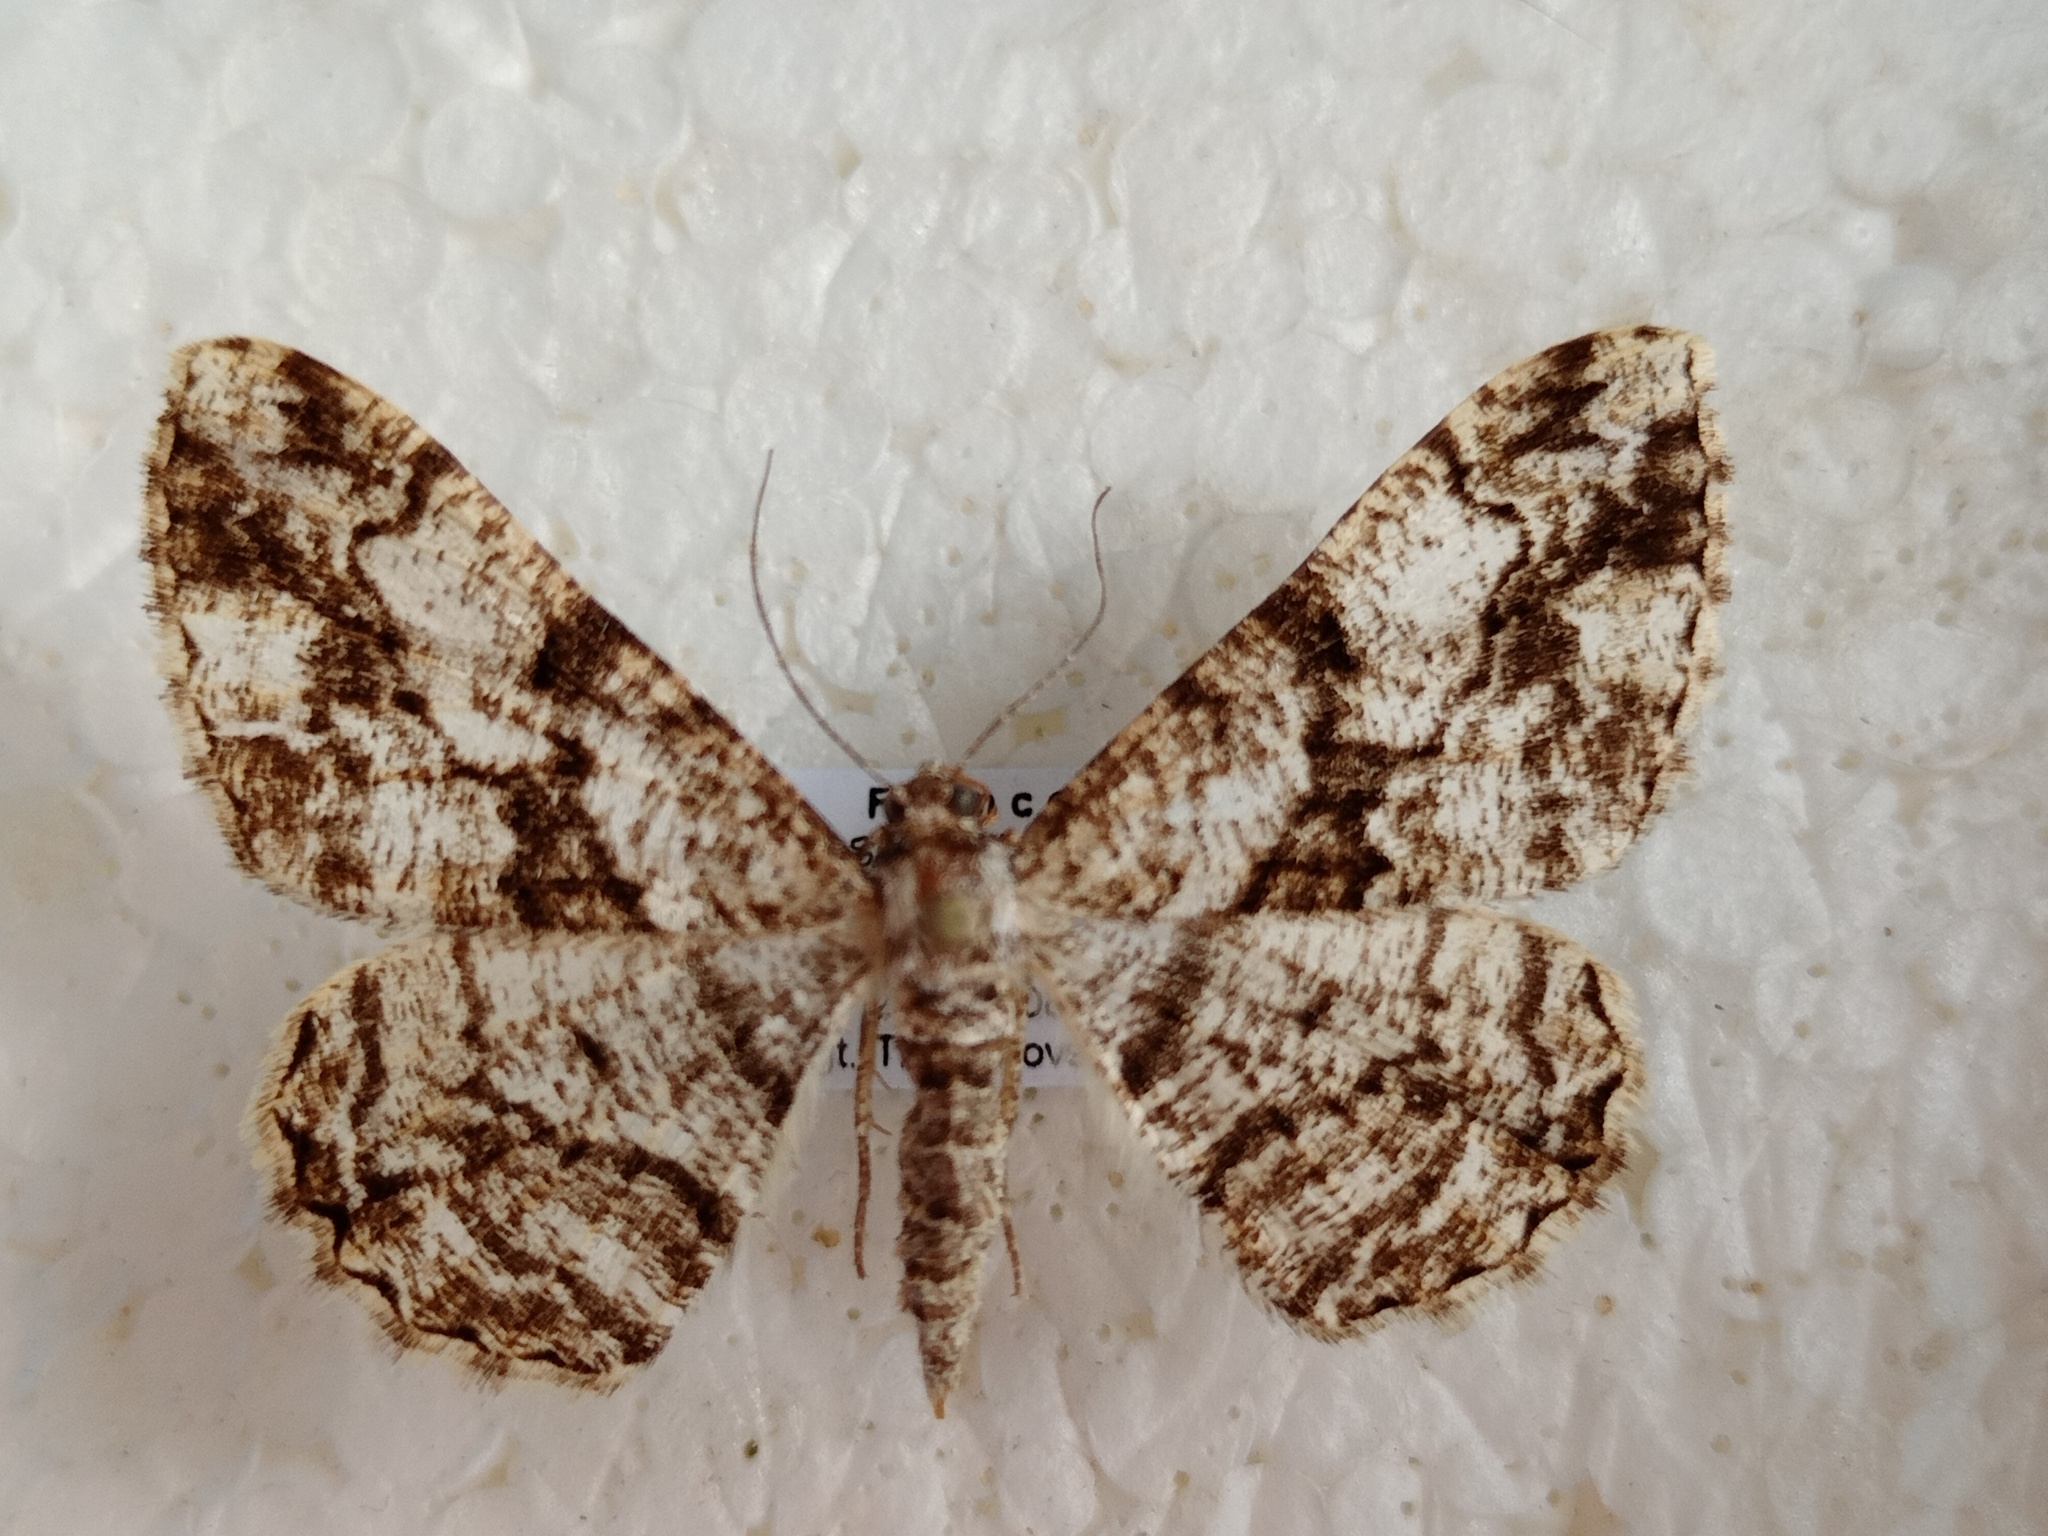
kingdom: Animalia
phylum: Arthropoda
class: Insecta
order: Lepidoptera
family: Geometridae
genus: Peribatodes
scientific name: Peribatodes umbraria
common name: Olive-tree beauty
